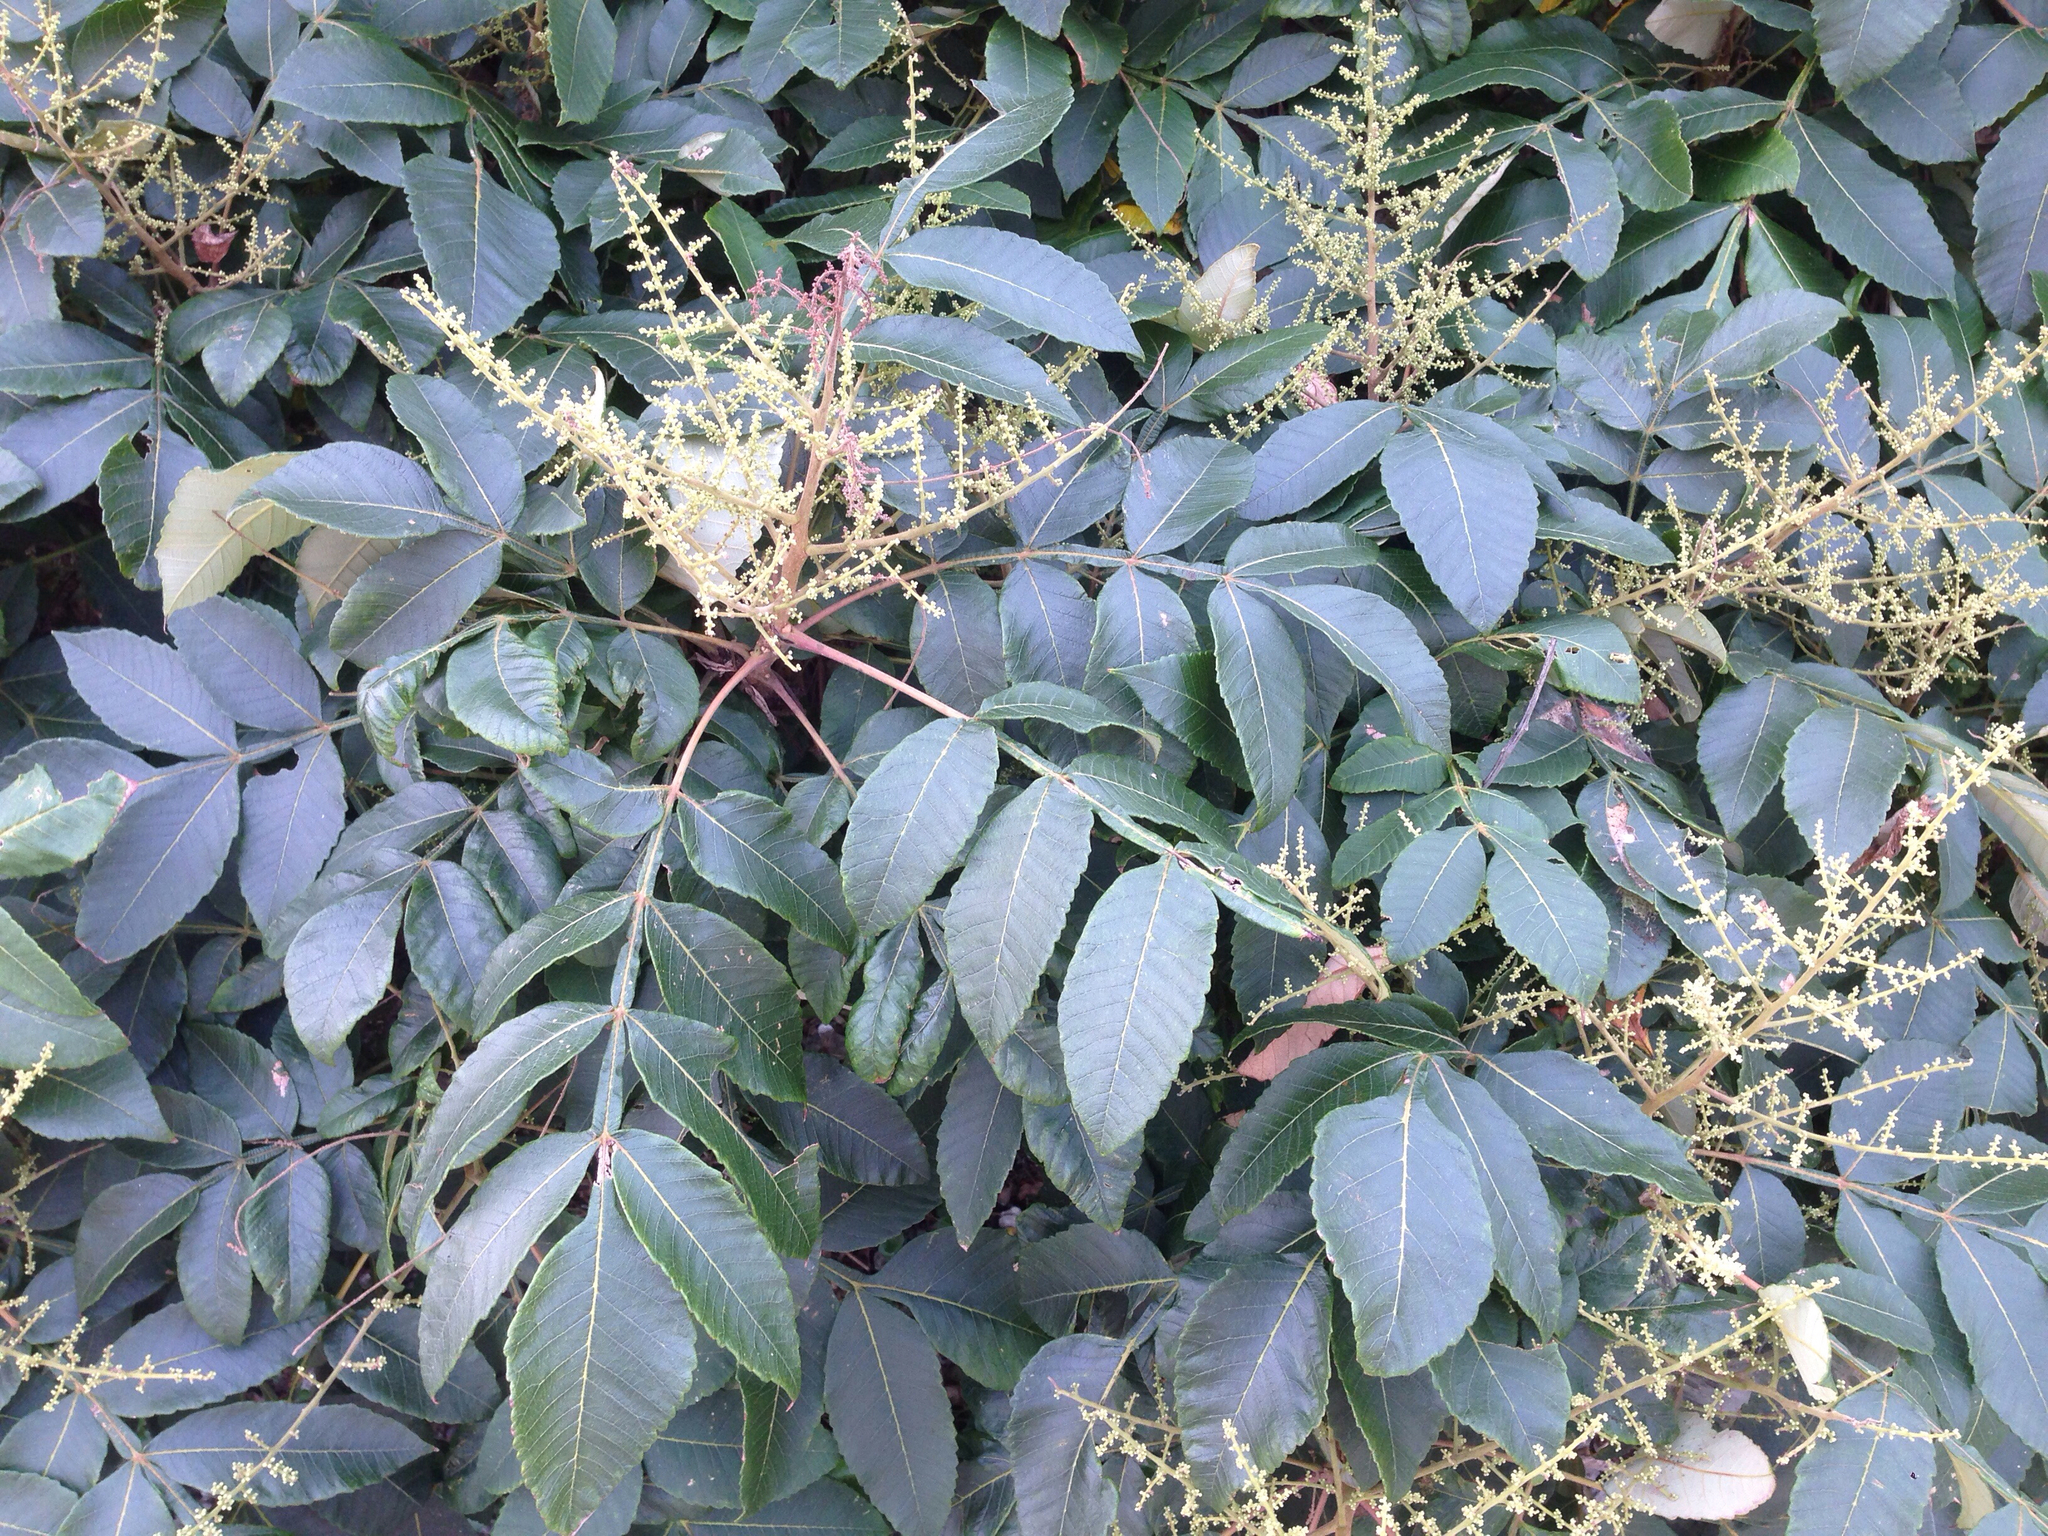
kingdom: Plantae
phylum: Tracheophyta
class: Magnoliopsida
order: Sapindales
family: Anacardiaceae
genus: Rhus
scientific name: Rhus chinensis
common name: Chinese gall
